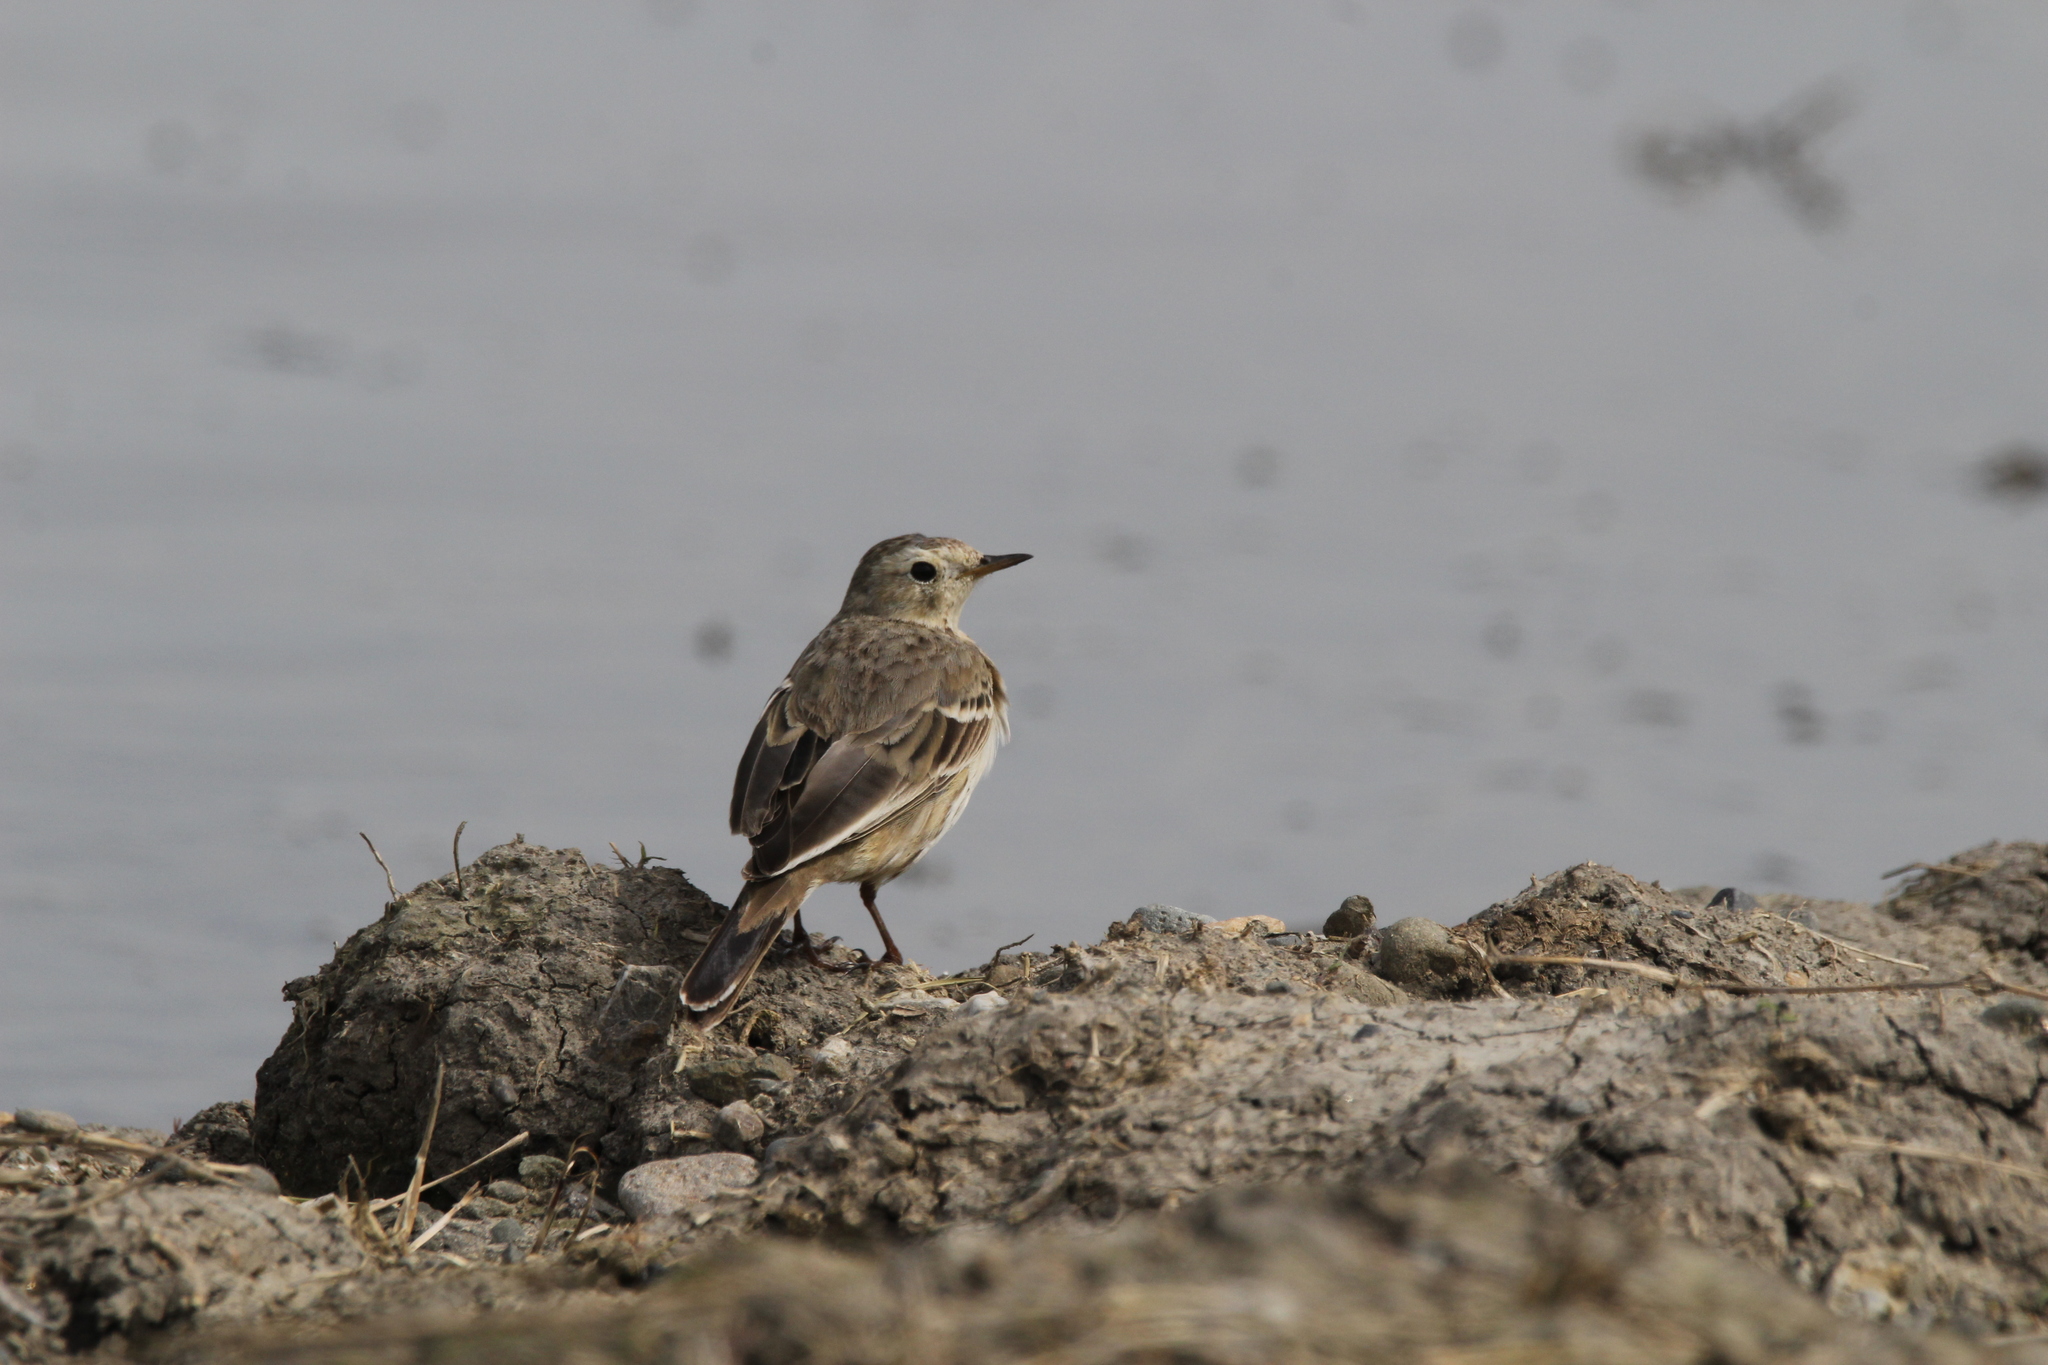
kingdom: Animalia
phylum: Chordata
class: Aves
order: Passeriformes
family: Motacillidae
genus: Anthus
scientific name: Anthus rubescens
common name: Buff-bellied pipit
